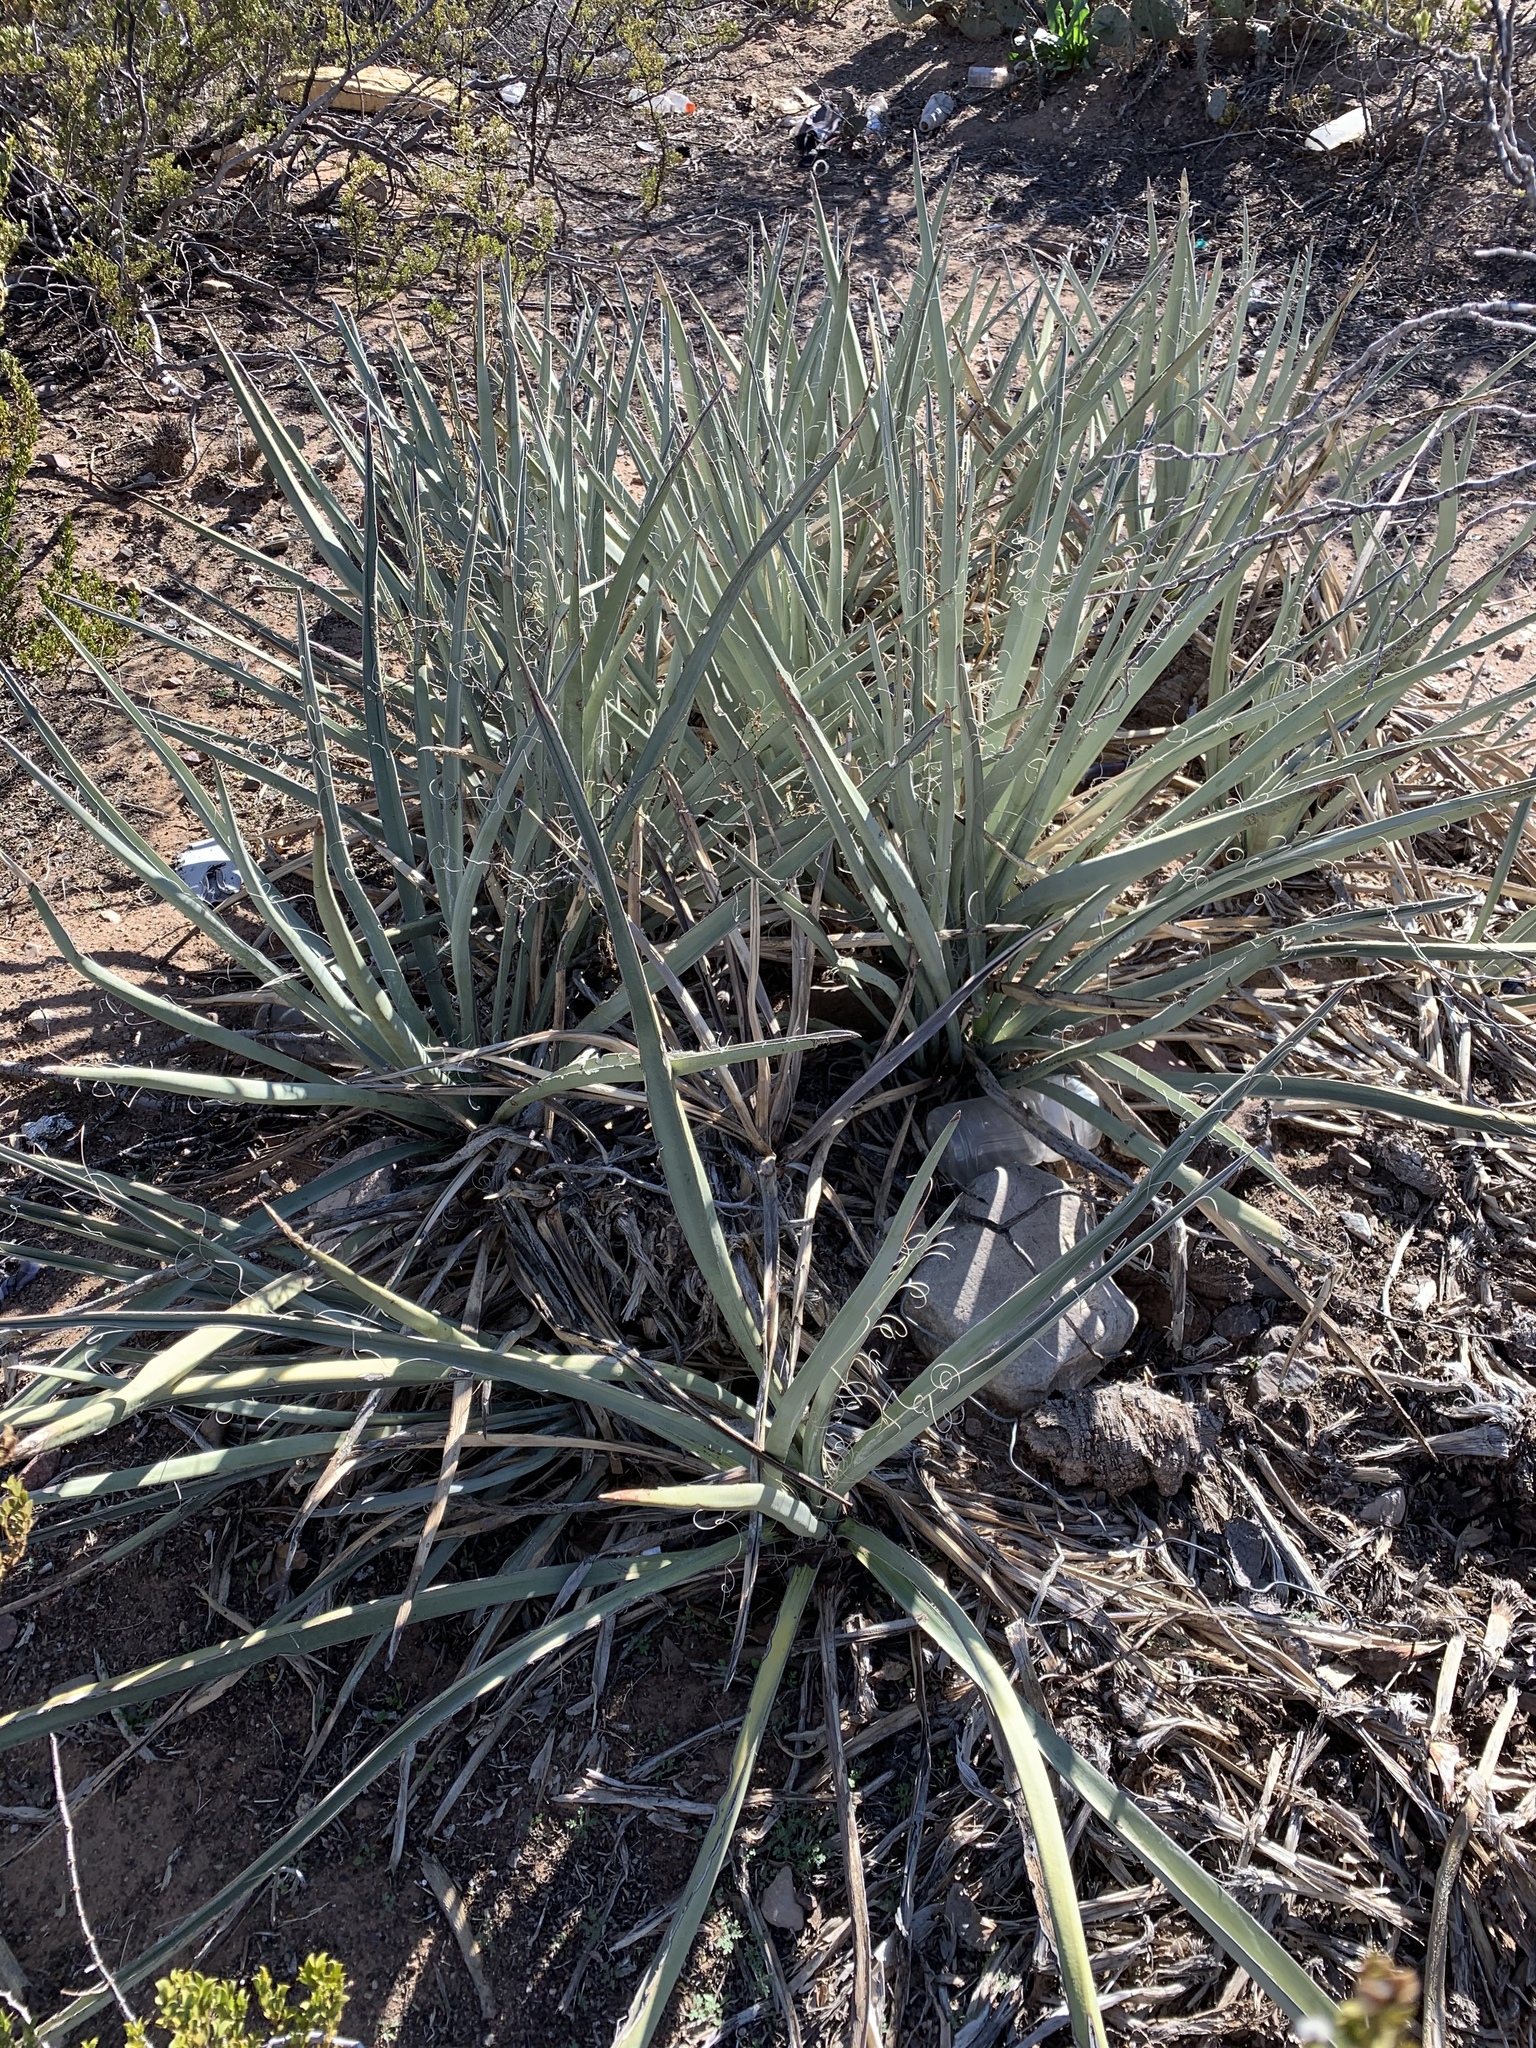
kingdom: Plantae
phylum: Tracheophyta
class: Liliopsida
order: Asparagales
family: Asparagaceae
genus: Yucca
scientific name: Yucca baccata
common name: Banana yucca
